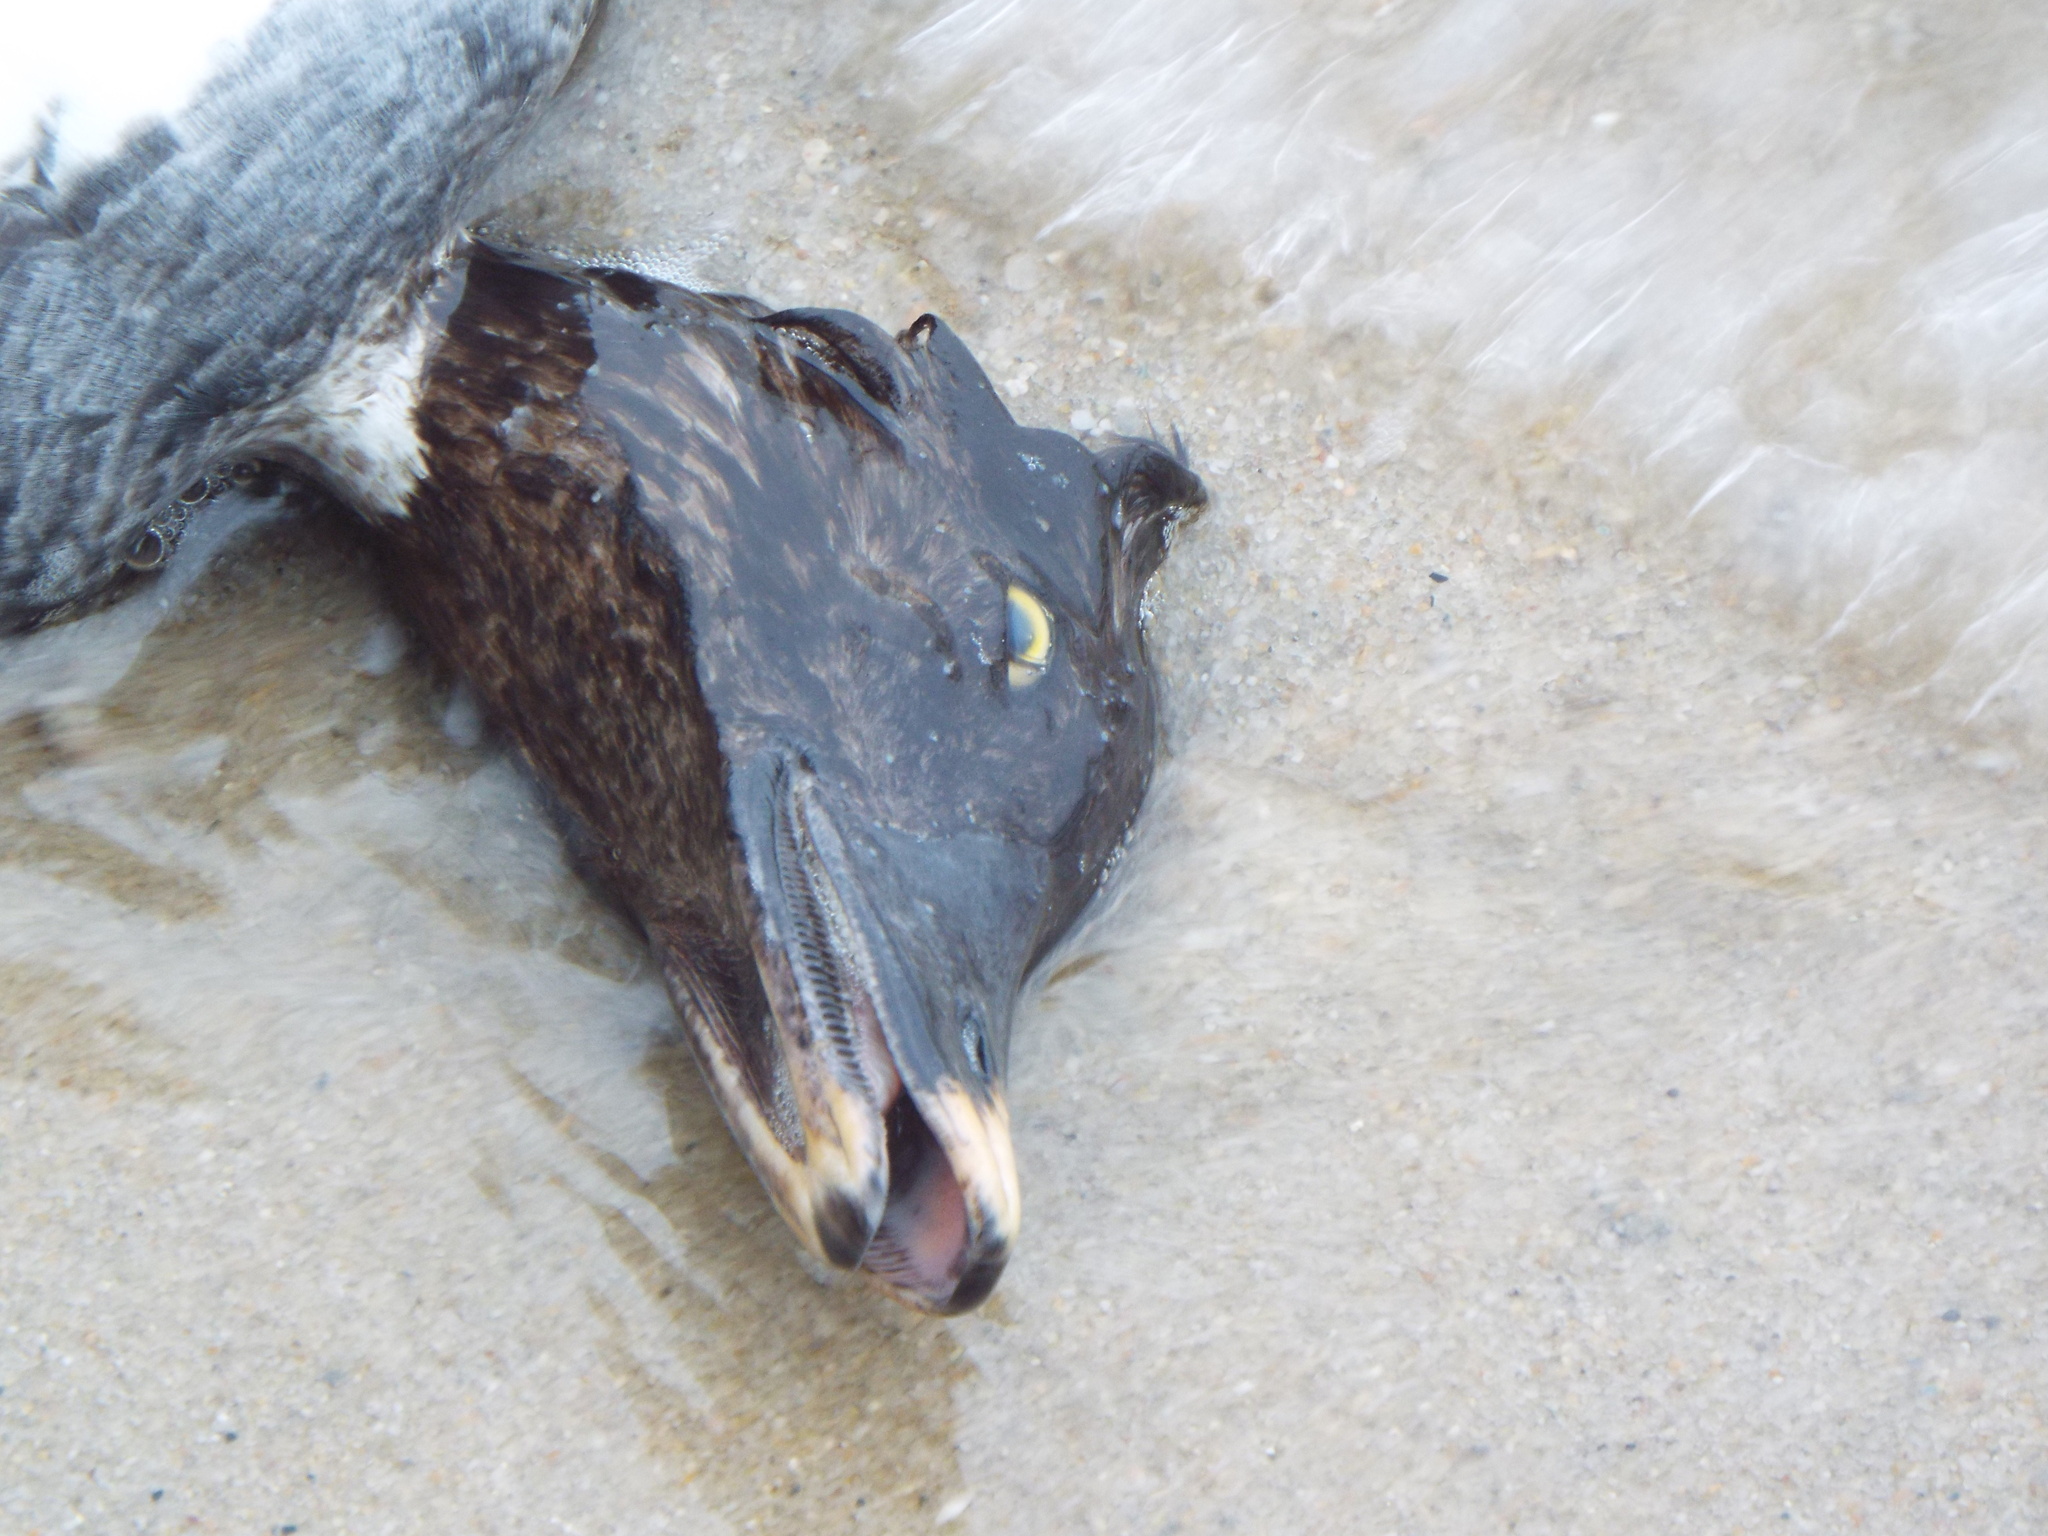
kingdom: Animalia
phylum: Chordata
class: Aves
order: Anseriformes
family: Anatidae
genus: Bucephala
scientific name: Bucephala clangula
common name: Common goldeneye
